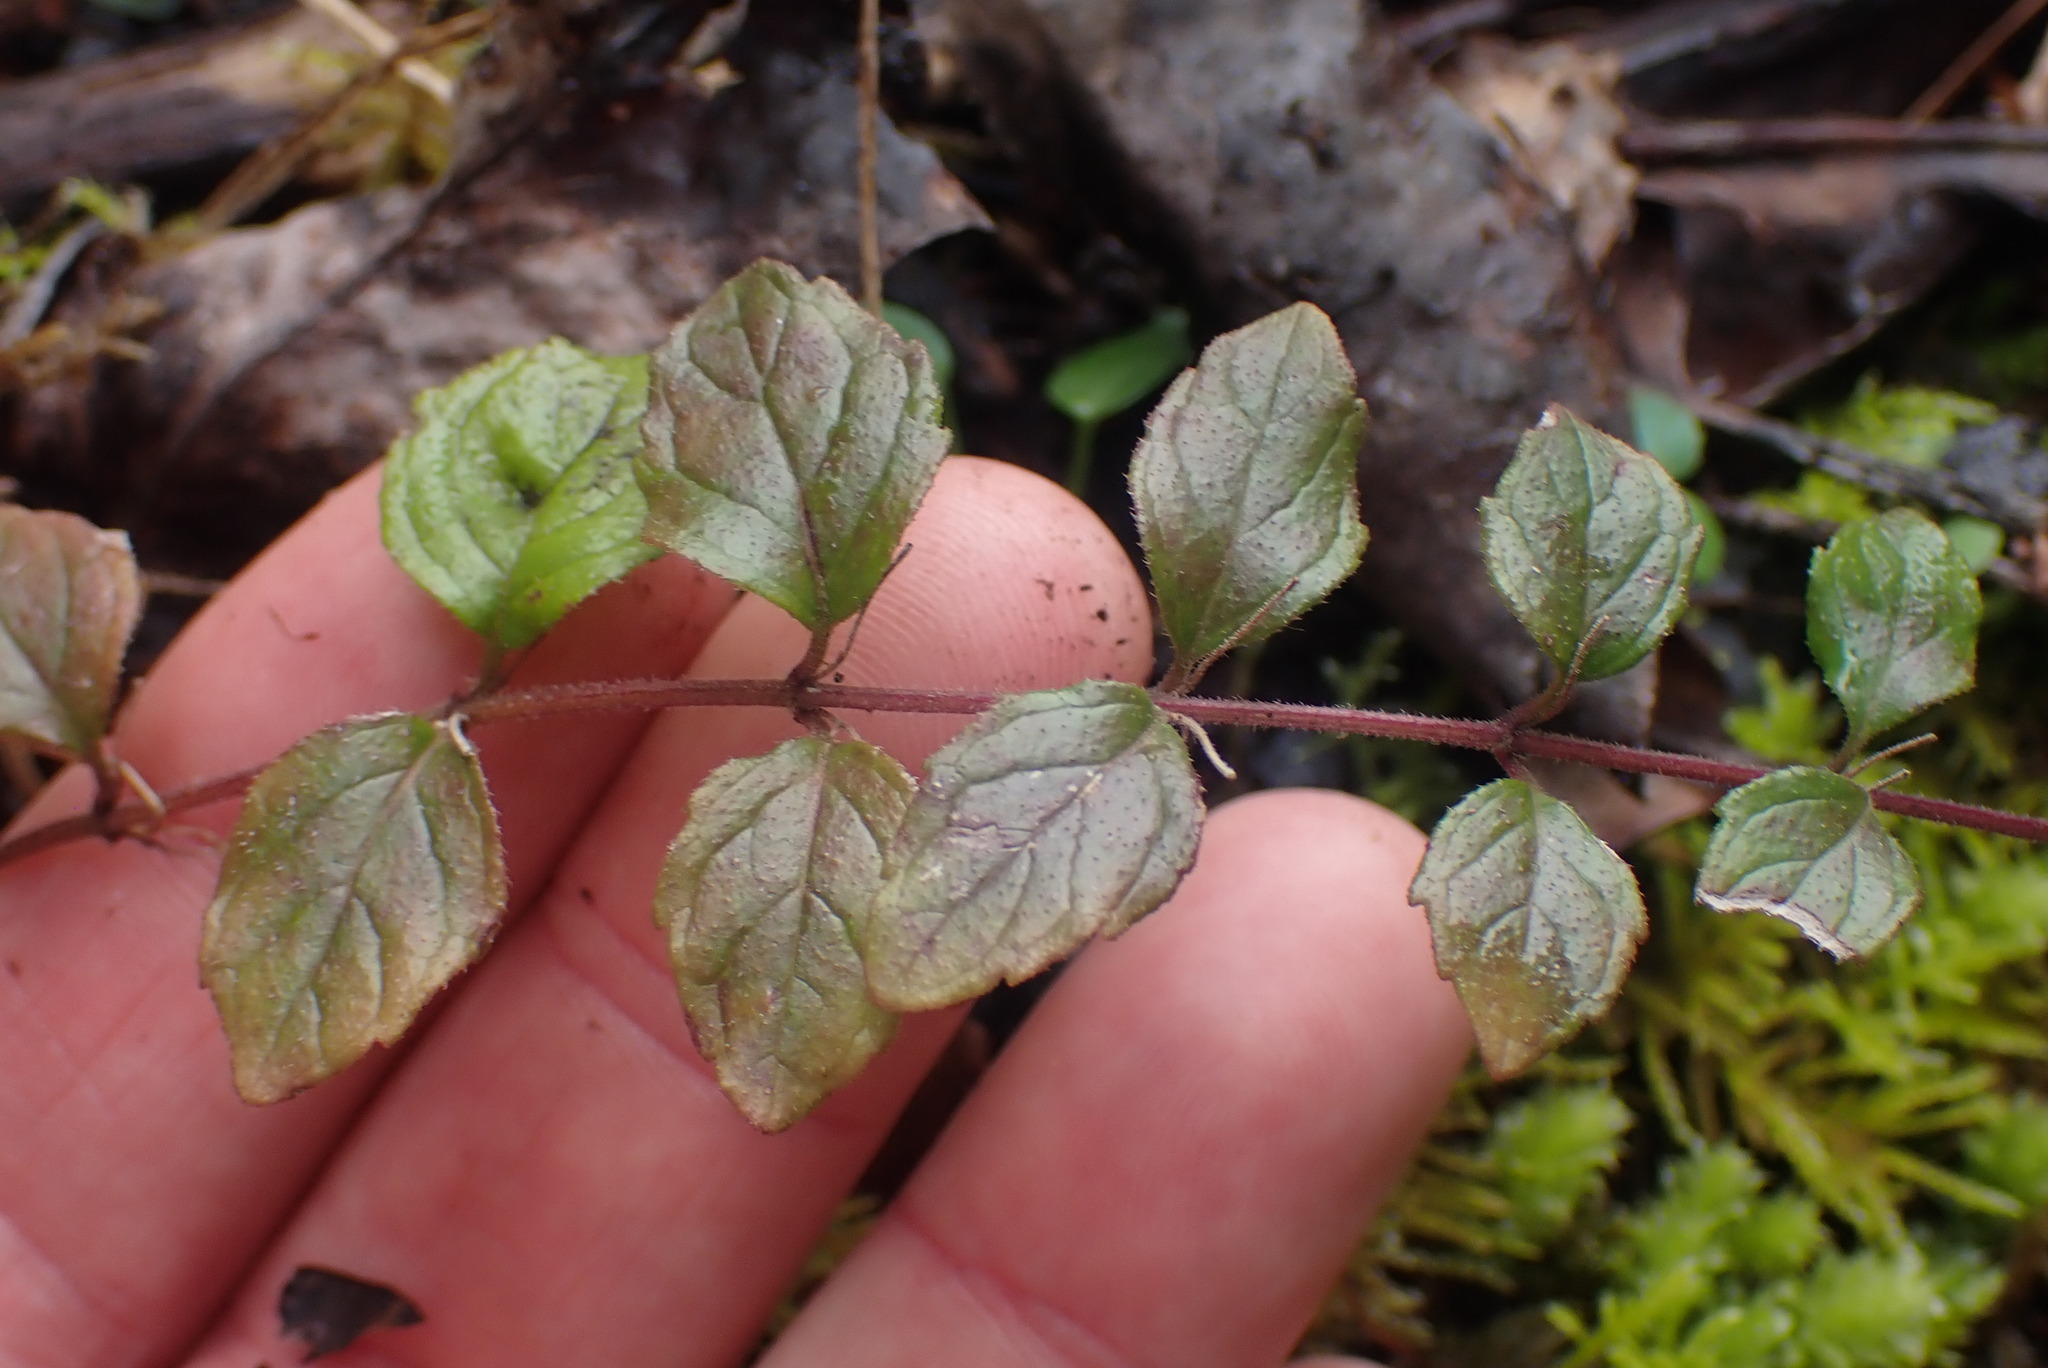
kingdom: Plantae
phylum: Tracheophyta
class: Magnoliopsida
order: Lamiales
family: Lamiaceae
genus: Micromeria
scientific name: Micromeria douglasii
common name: Yerba buena
